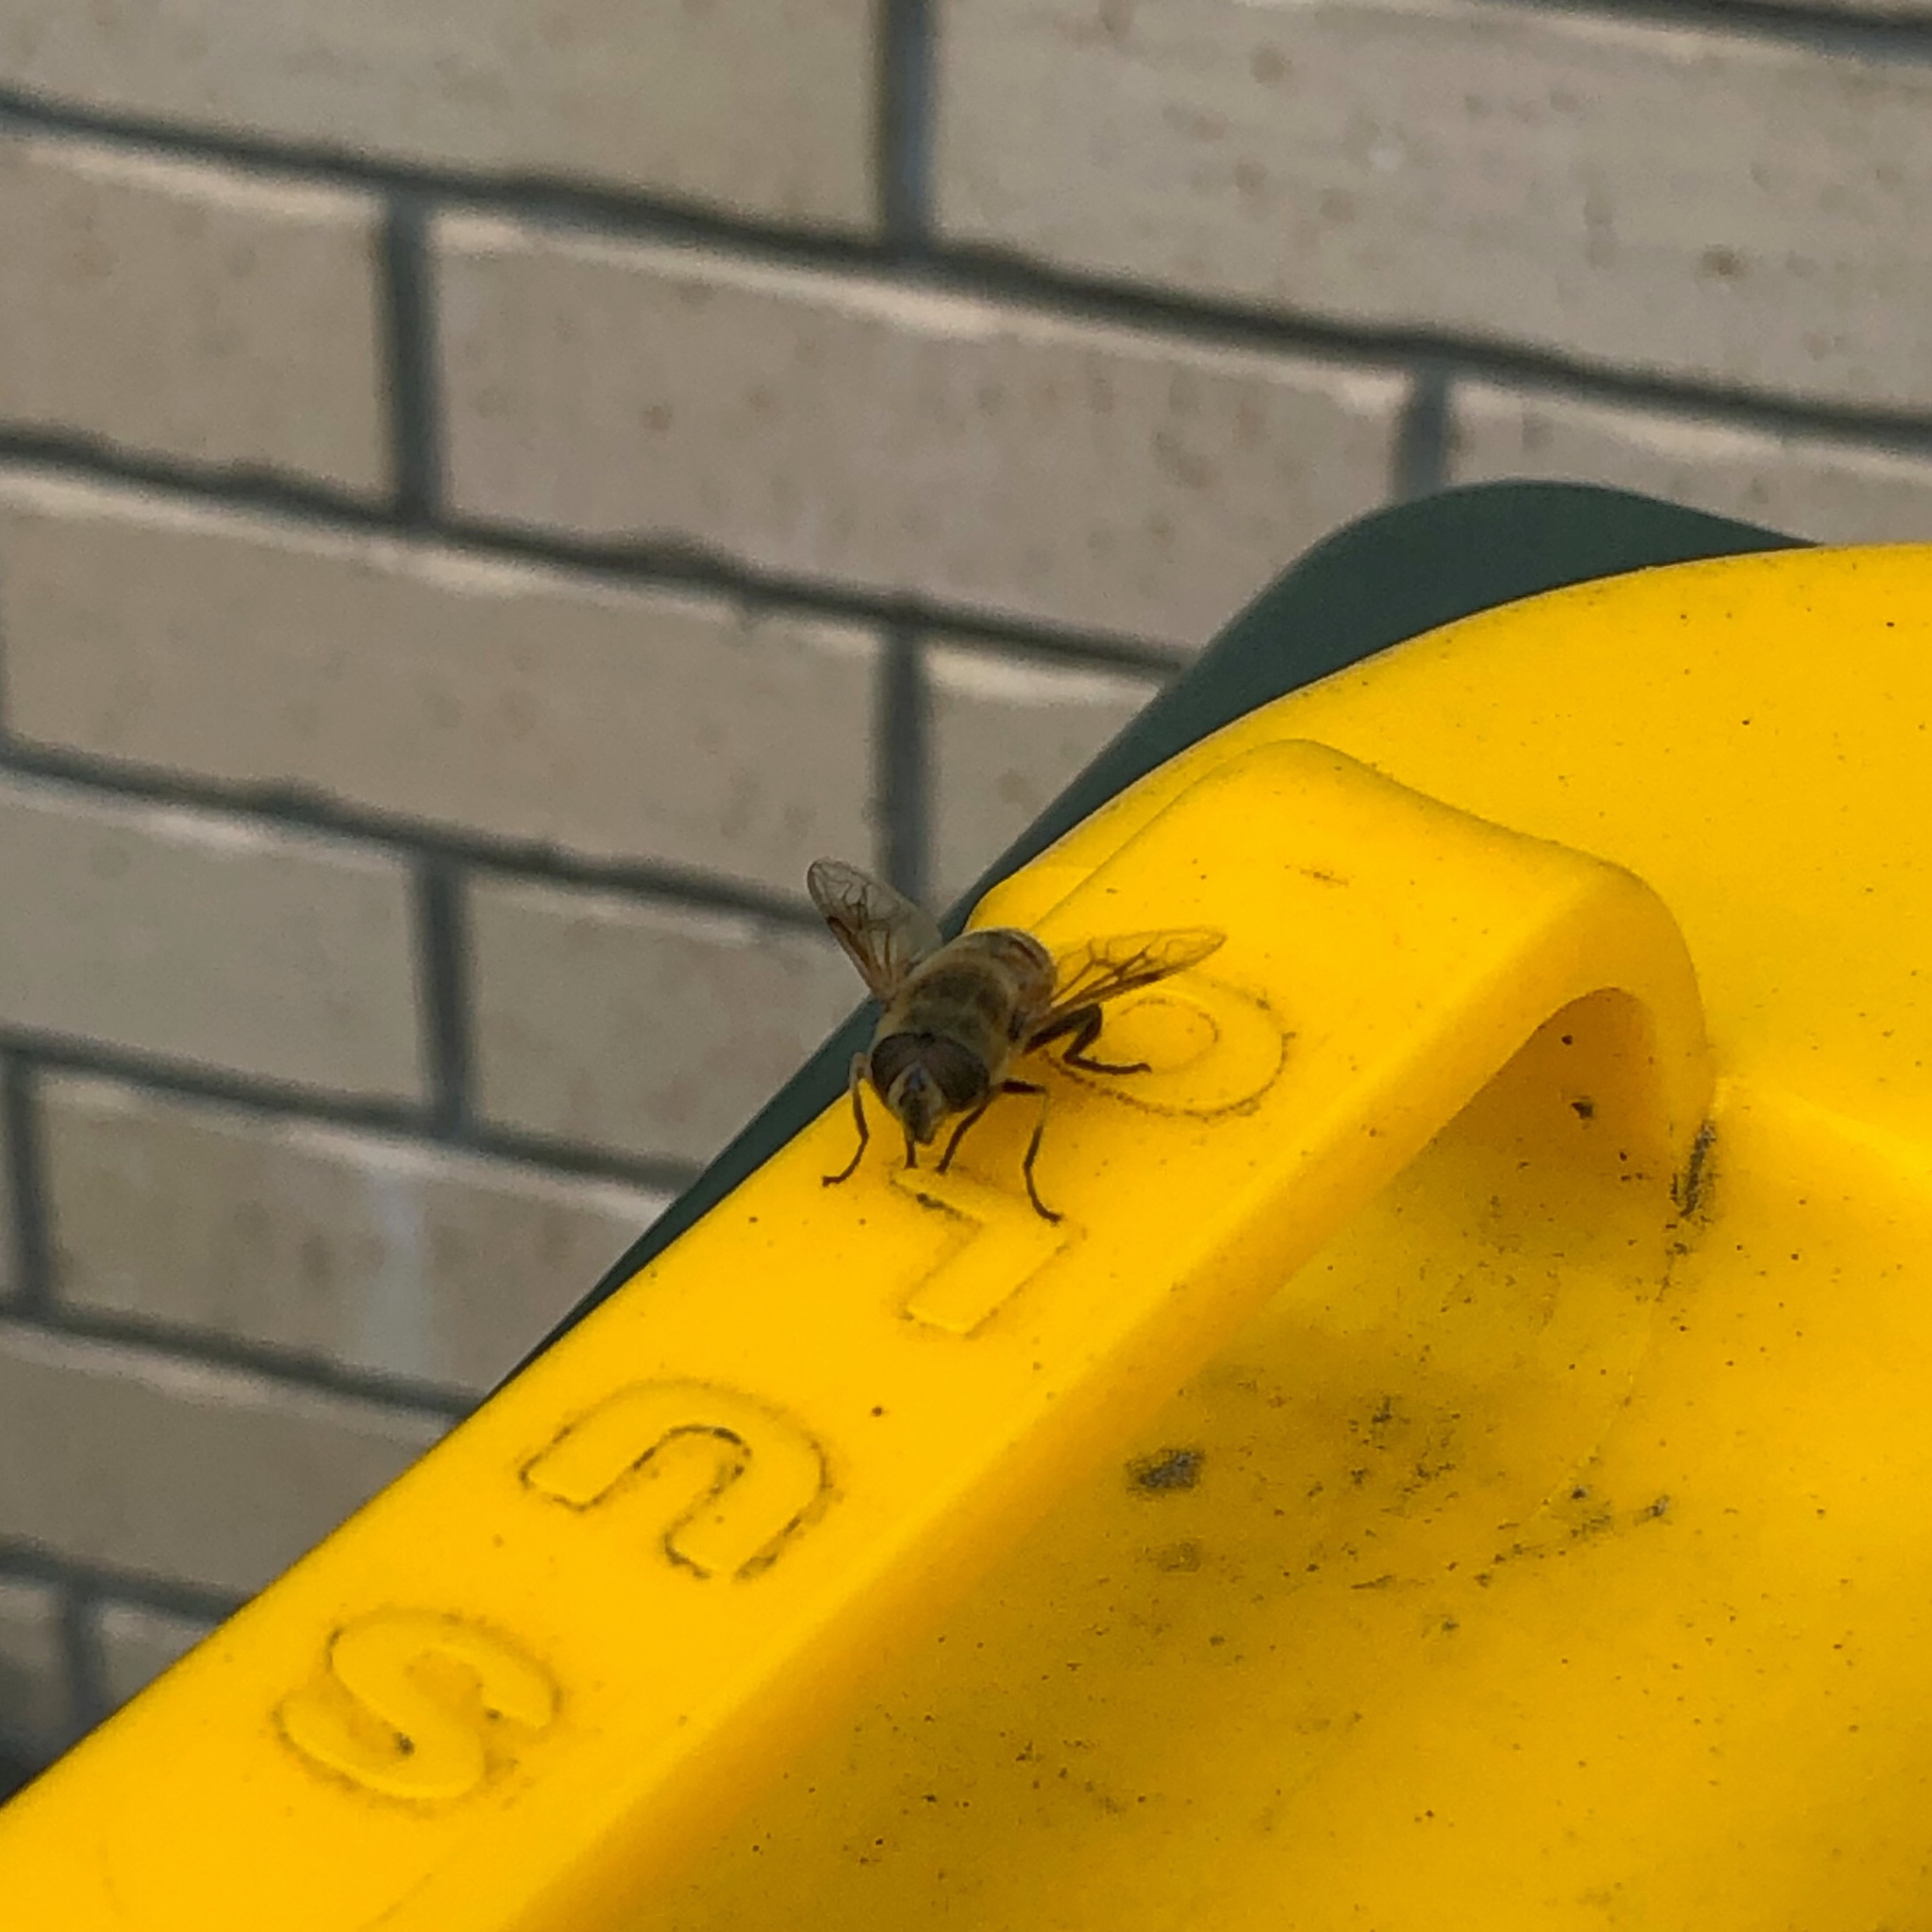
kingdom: Animalia
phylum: Arthropoda
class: Insecta
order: Diptera
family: Syrphidae
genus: Eristalis
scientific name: Eristalis tenax
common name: Drone fly
